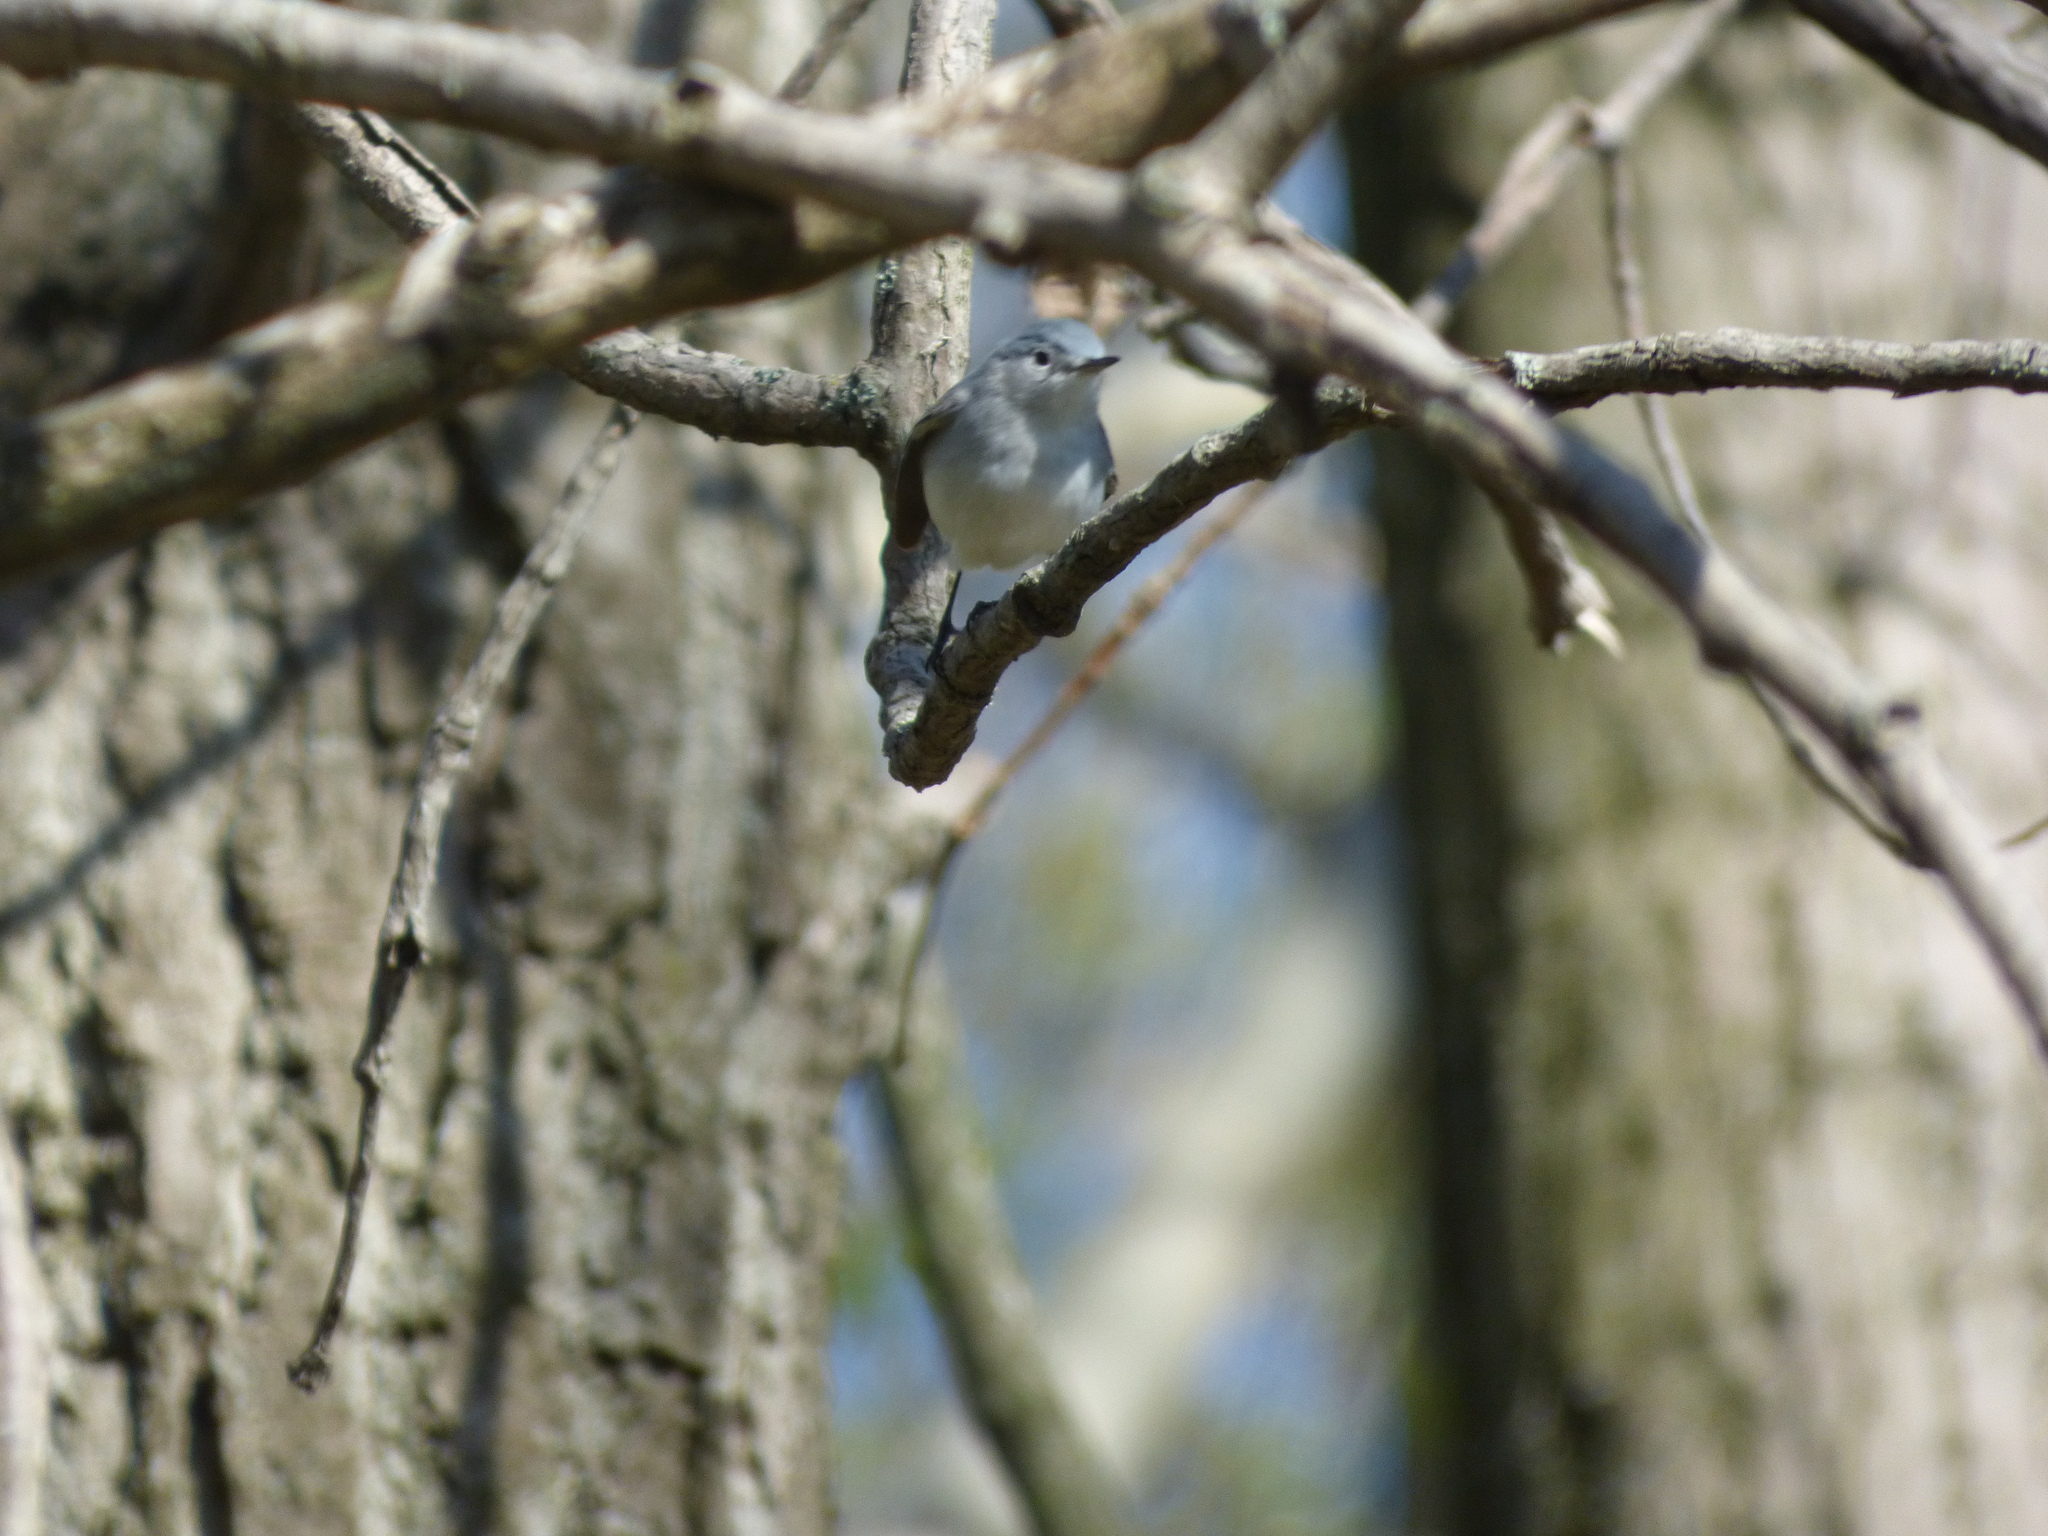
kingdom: Animalia
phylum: Chordata
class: Aves
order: Passeriformes
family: Polioptilidae
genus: Polioptila
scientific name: Polioptila caerulea
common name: Blue-gray gnatcatcher
